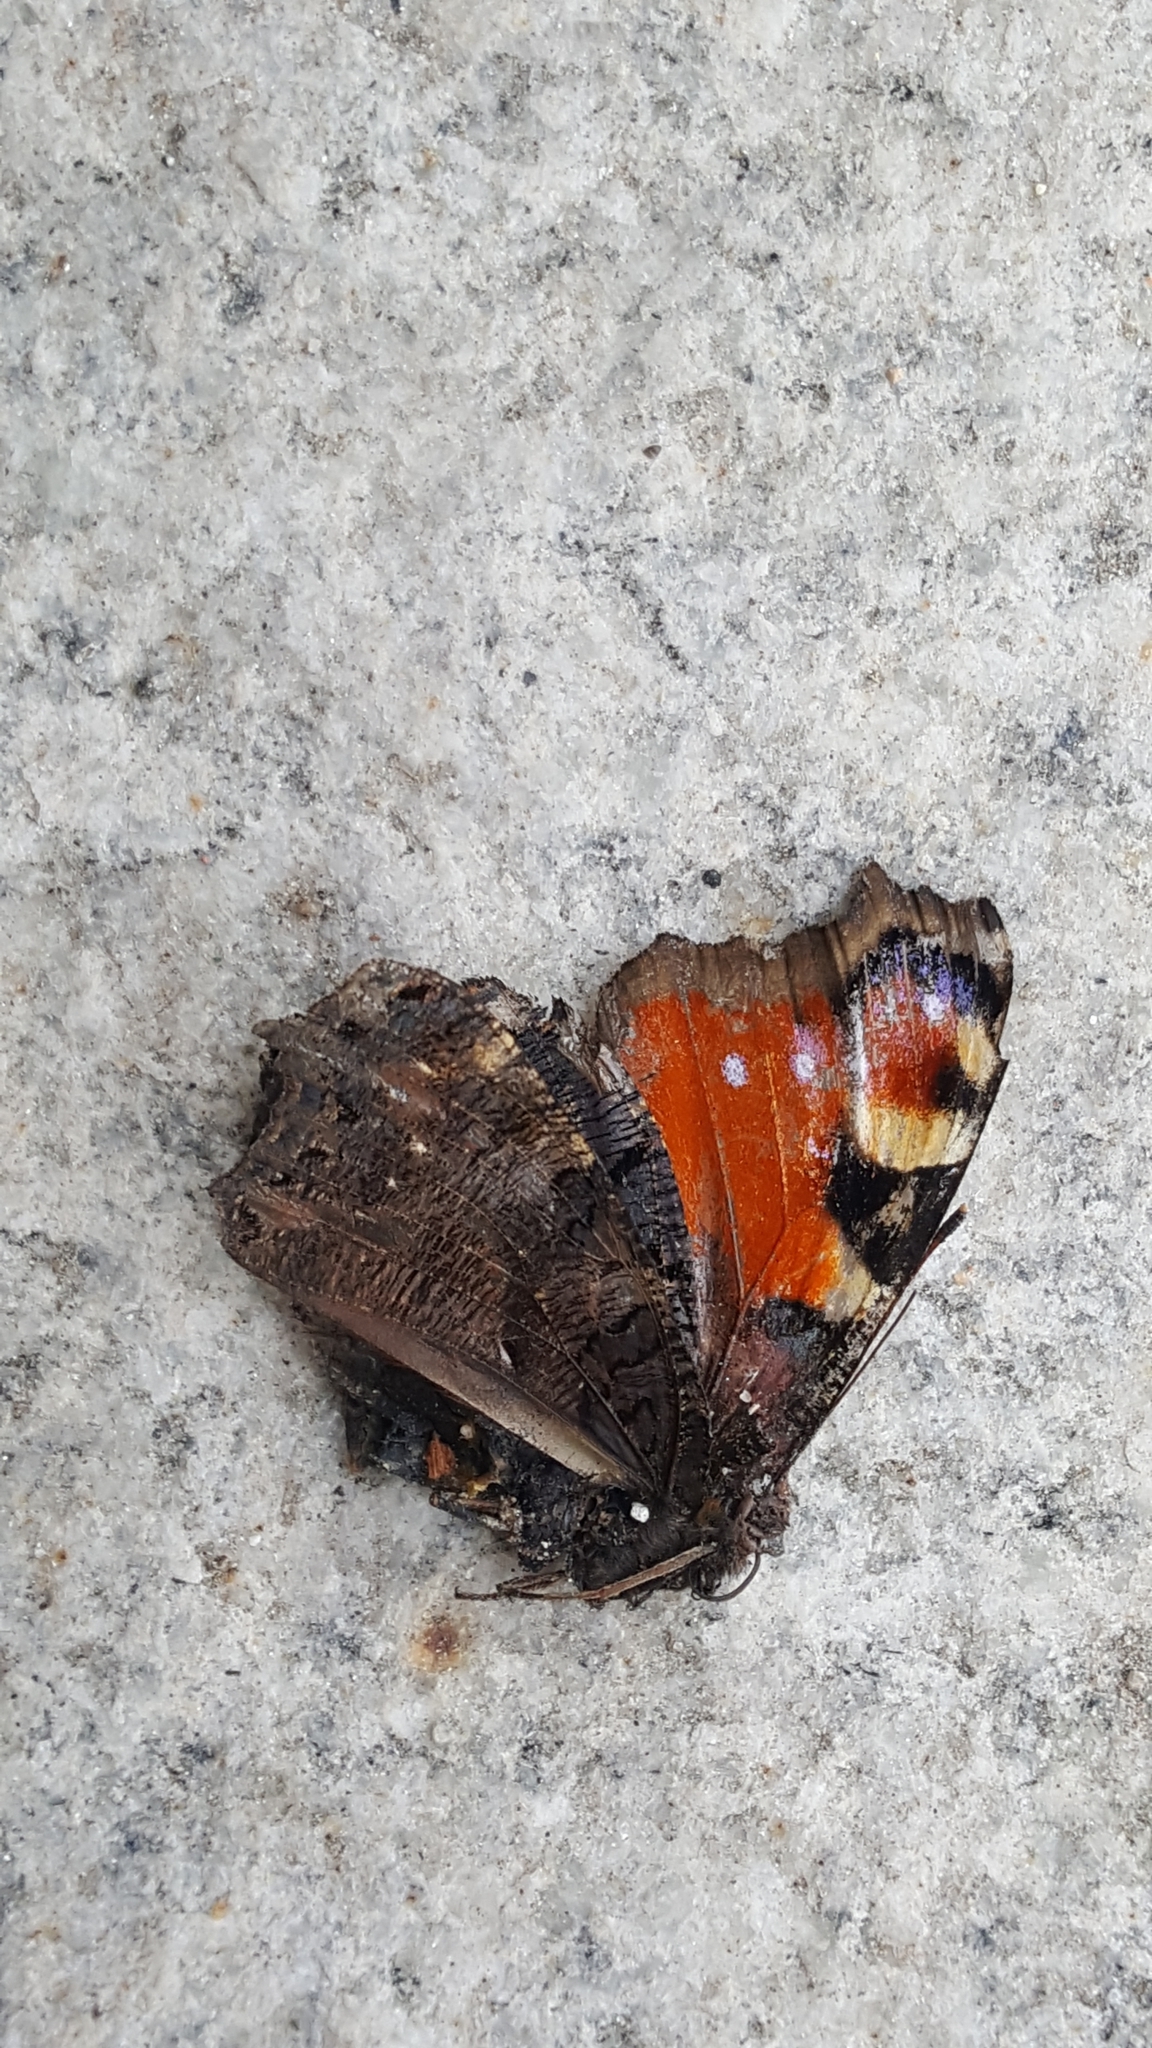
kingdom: Animalia
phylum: Arthropoda
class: Insecta
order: Lepidoptera
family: Nymphalidae
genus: Aglais
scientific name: Aglais io
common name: Peacock
